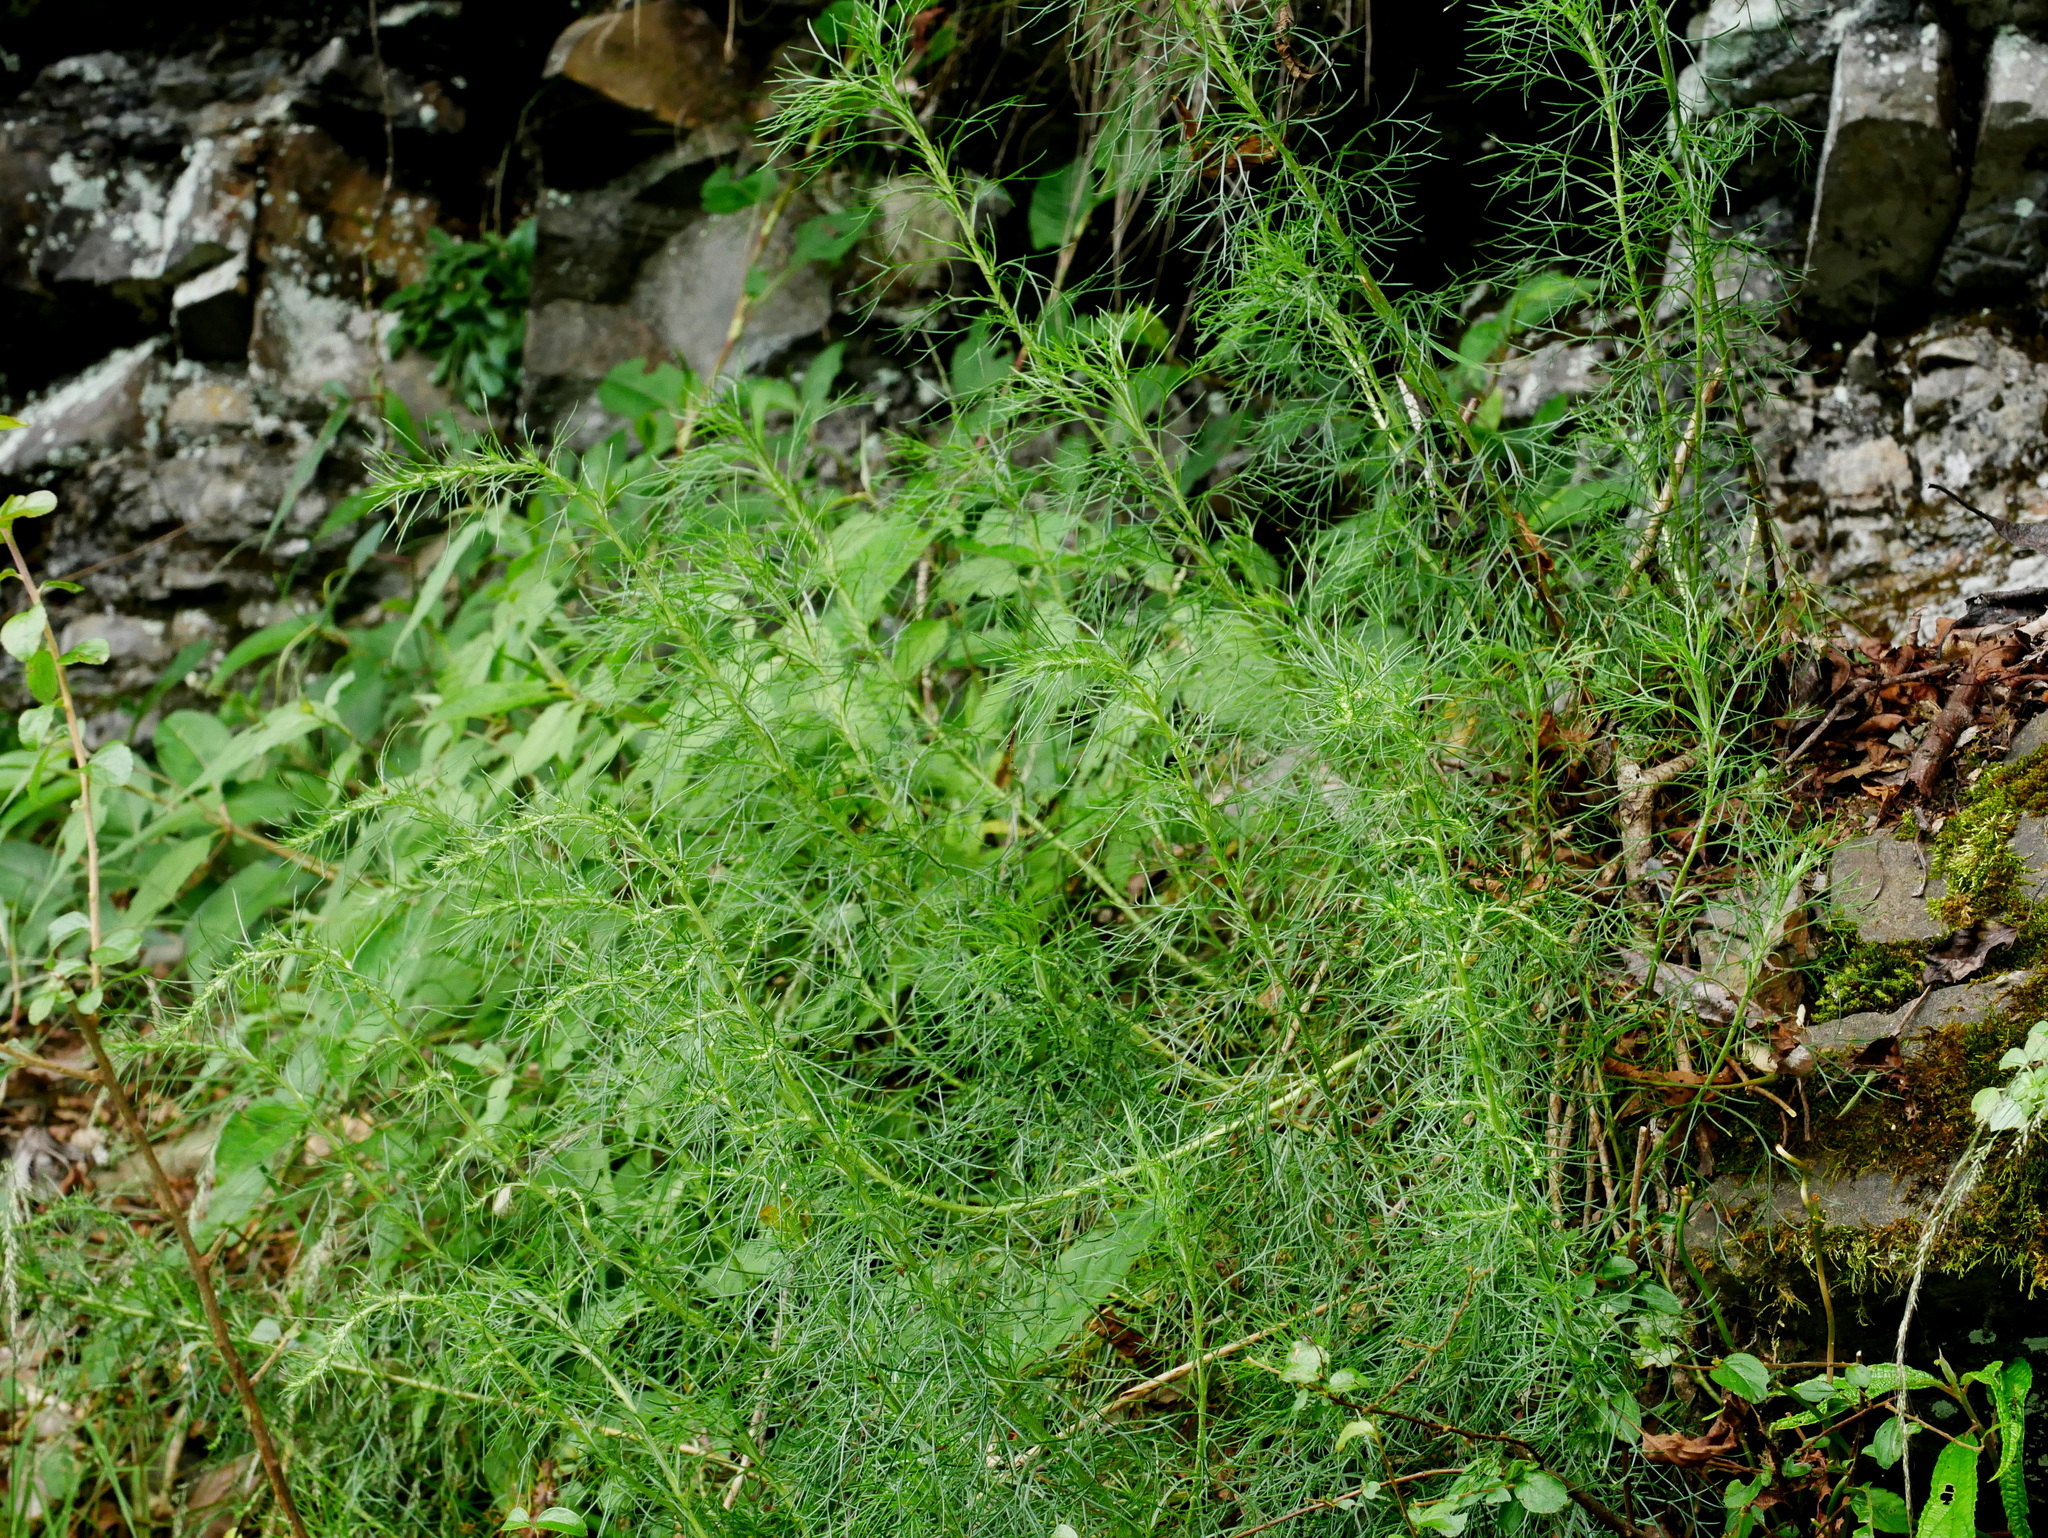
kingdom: Plantae
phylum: Tracheophyta
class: Magnoliopsida
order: Asterales
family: Asteraceae
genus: Artemisia
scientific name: Artemisia morrisonensis
